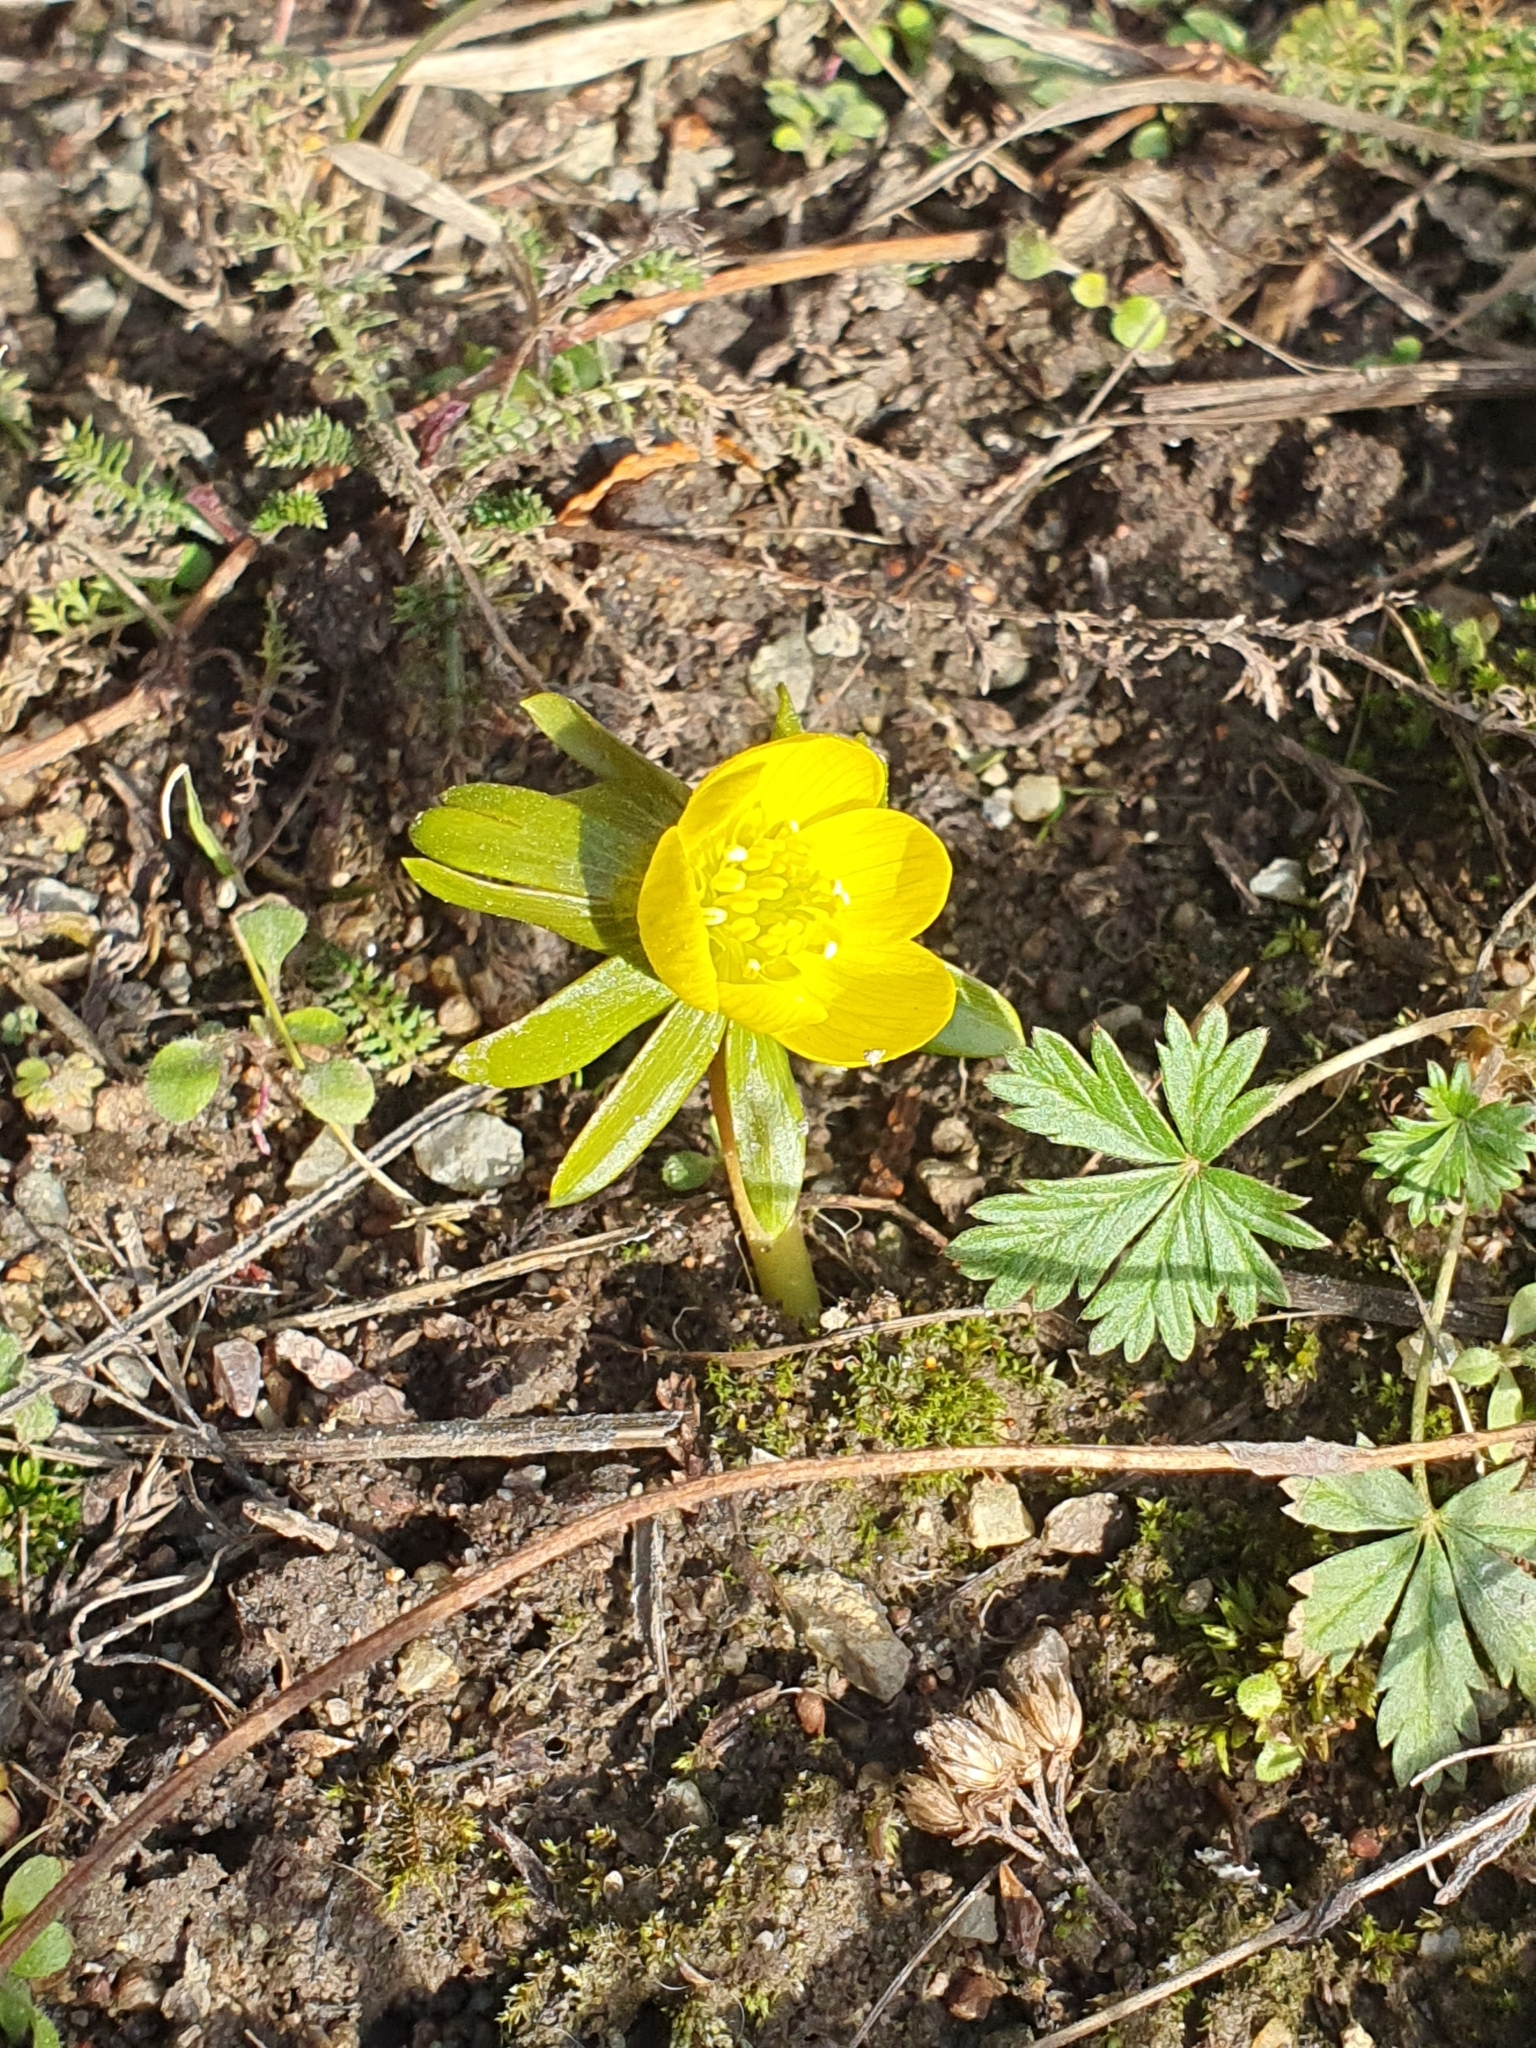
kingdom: Plantae
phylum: Tracheophyta
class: Magnoliopsida
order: Ranunculales
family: Ranunculaceae
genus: Eranthis
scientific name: Eranthis hyemalis
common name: Winter aconite
